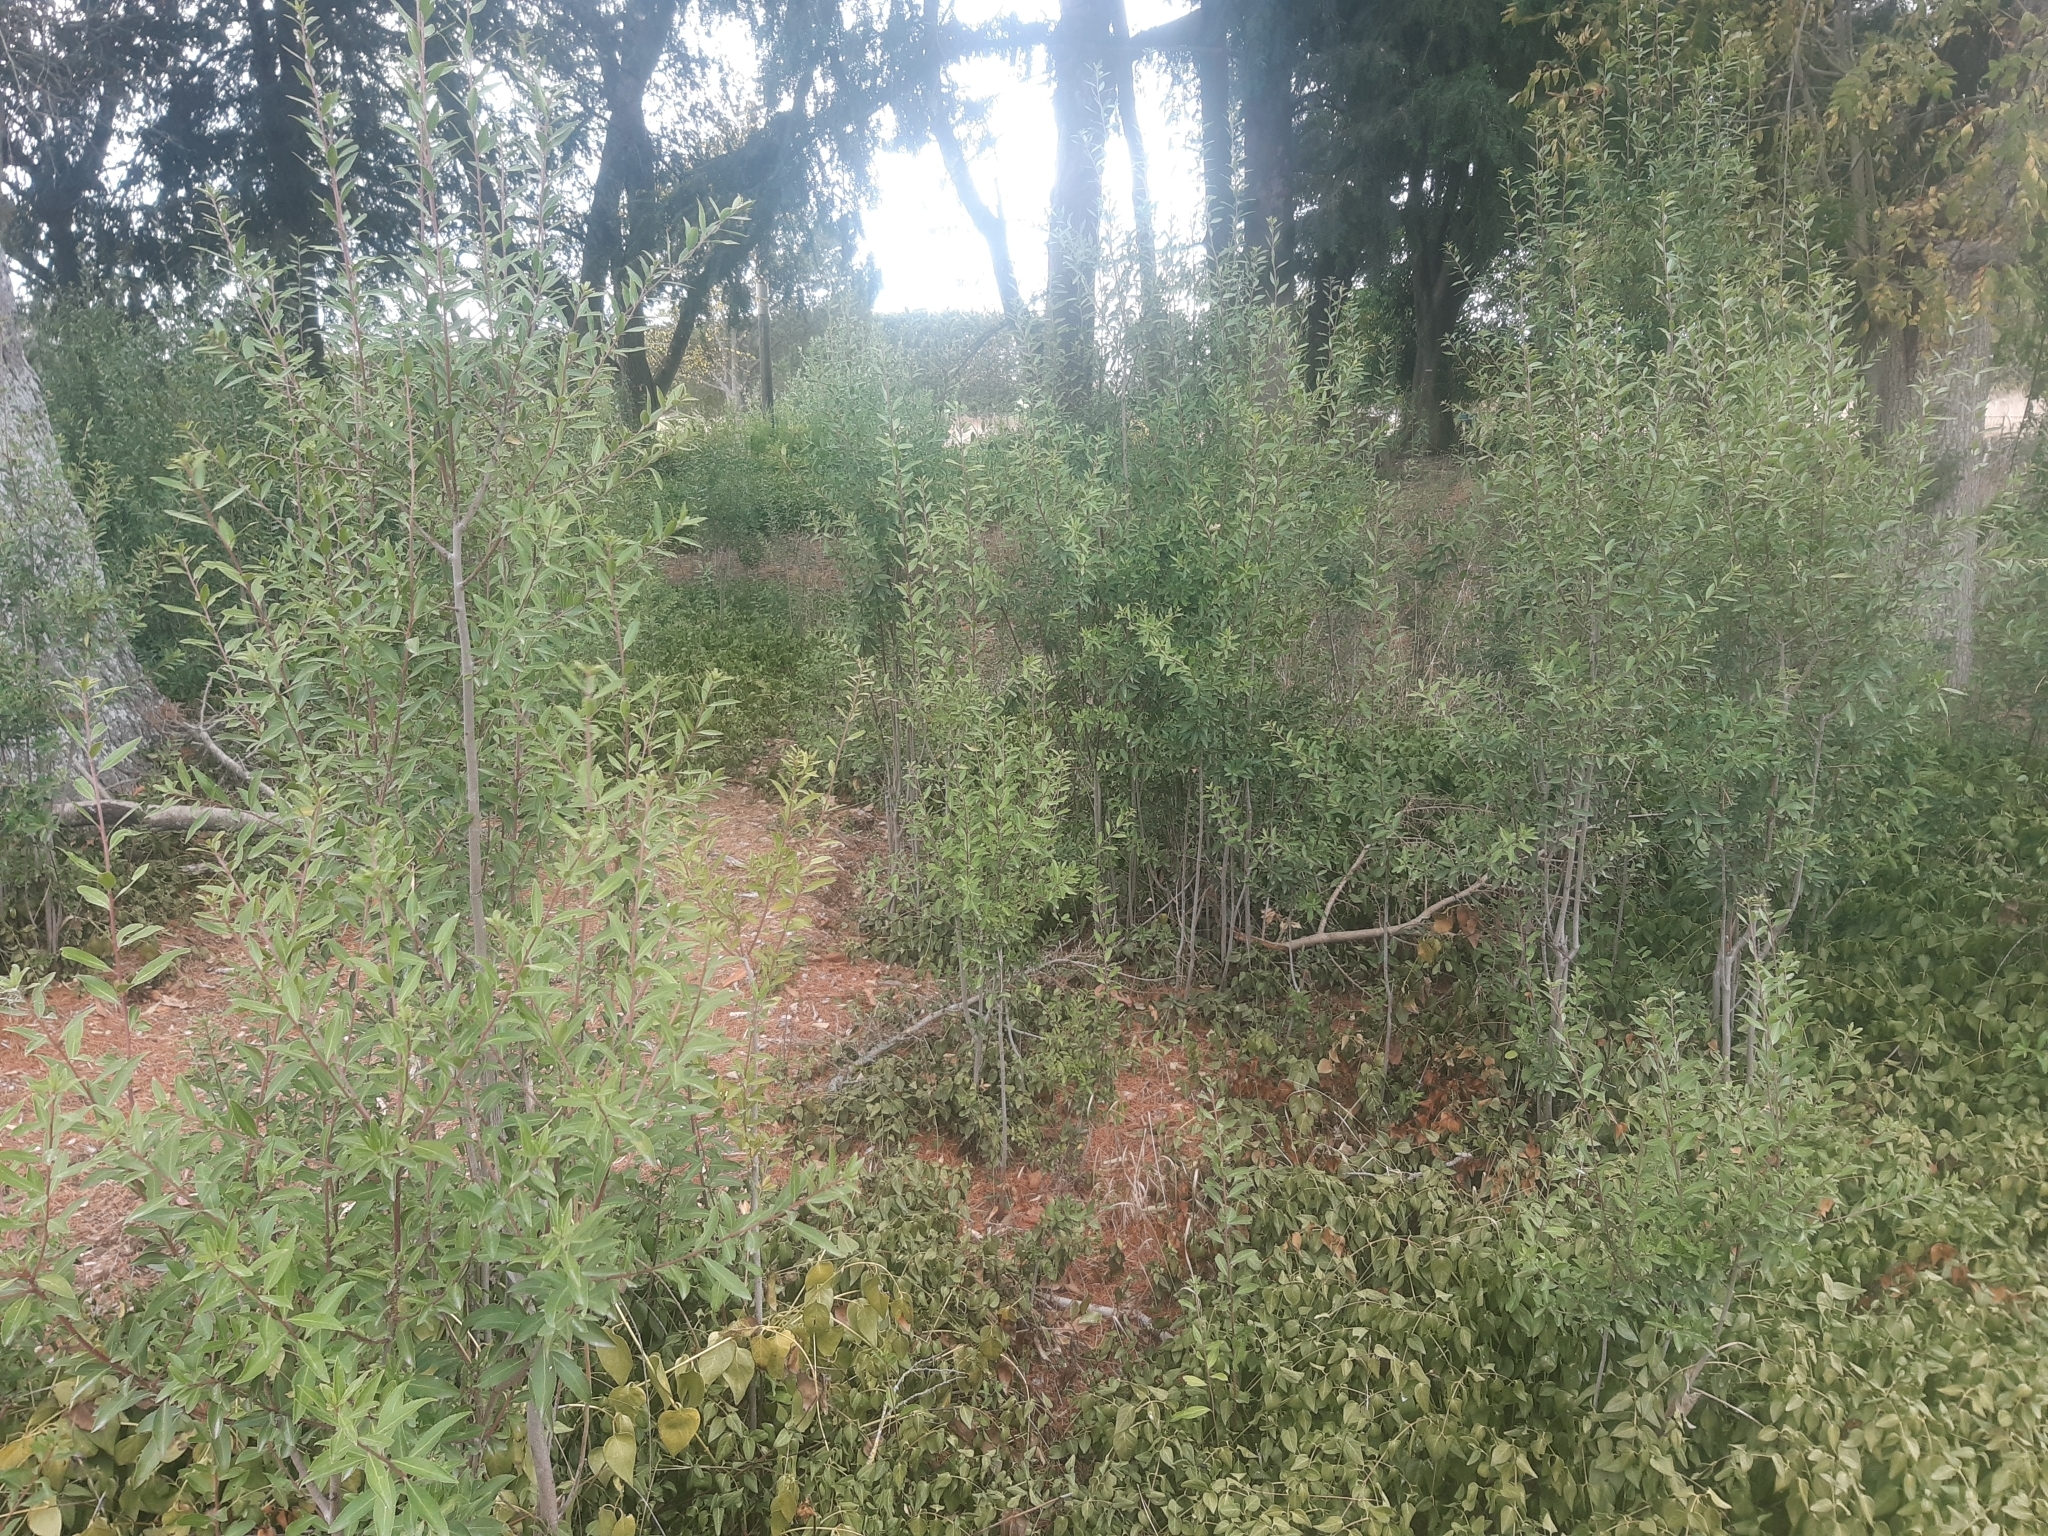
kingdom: Plantae
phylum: Tracheophyta
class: Magnoliopsida
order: Celastrales
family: Celastraceae
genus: Maytenus
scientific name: Maytenus boaria
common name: Mayten
